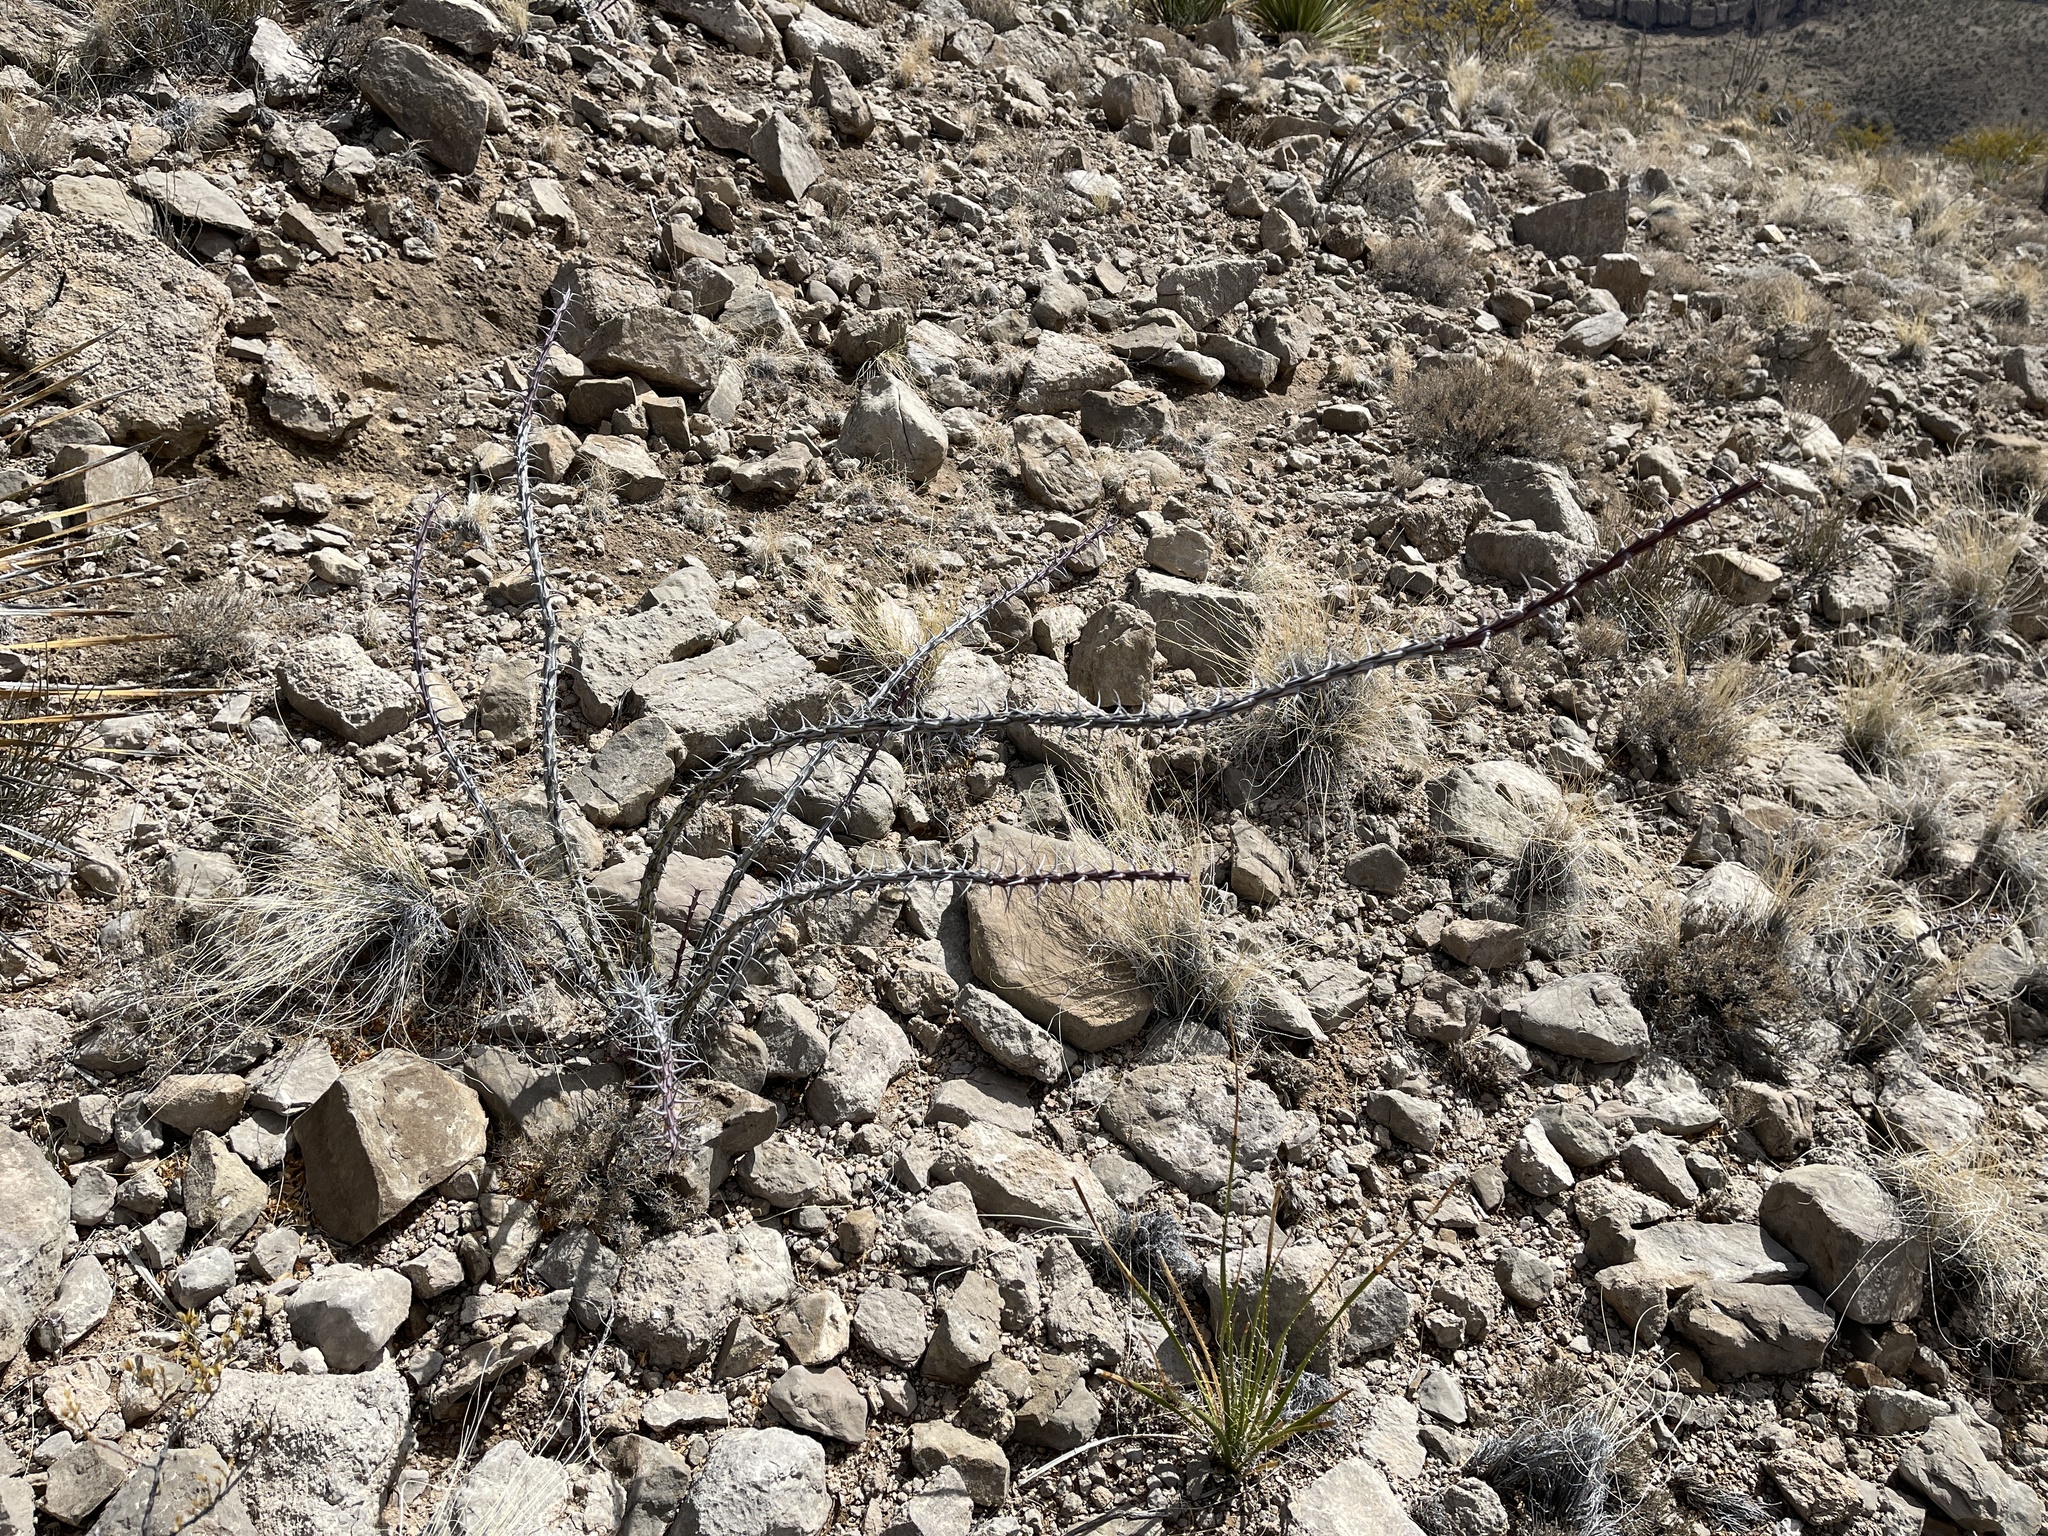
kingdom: Plantae
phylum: Tracheophyta
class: Magnoliopsida
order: Ericales
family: Fouquieriaceae
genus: Fouquieria
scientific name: Fouquieria splendens
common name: Vine-cactus
